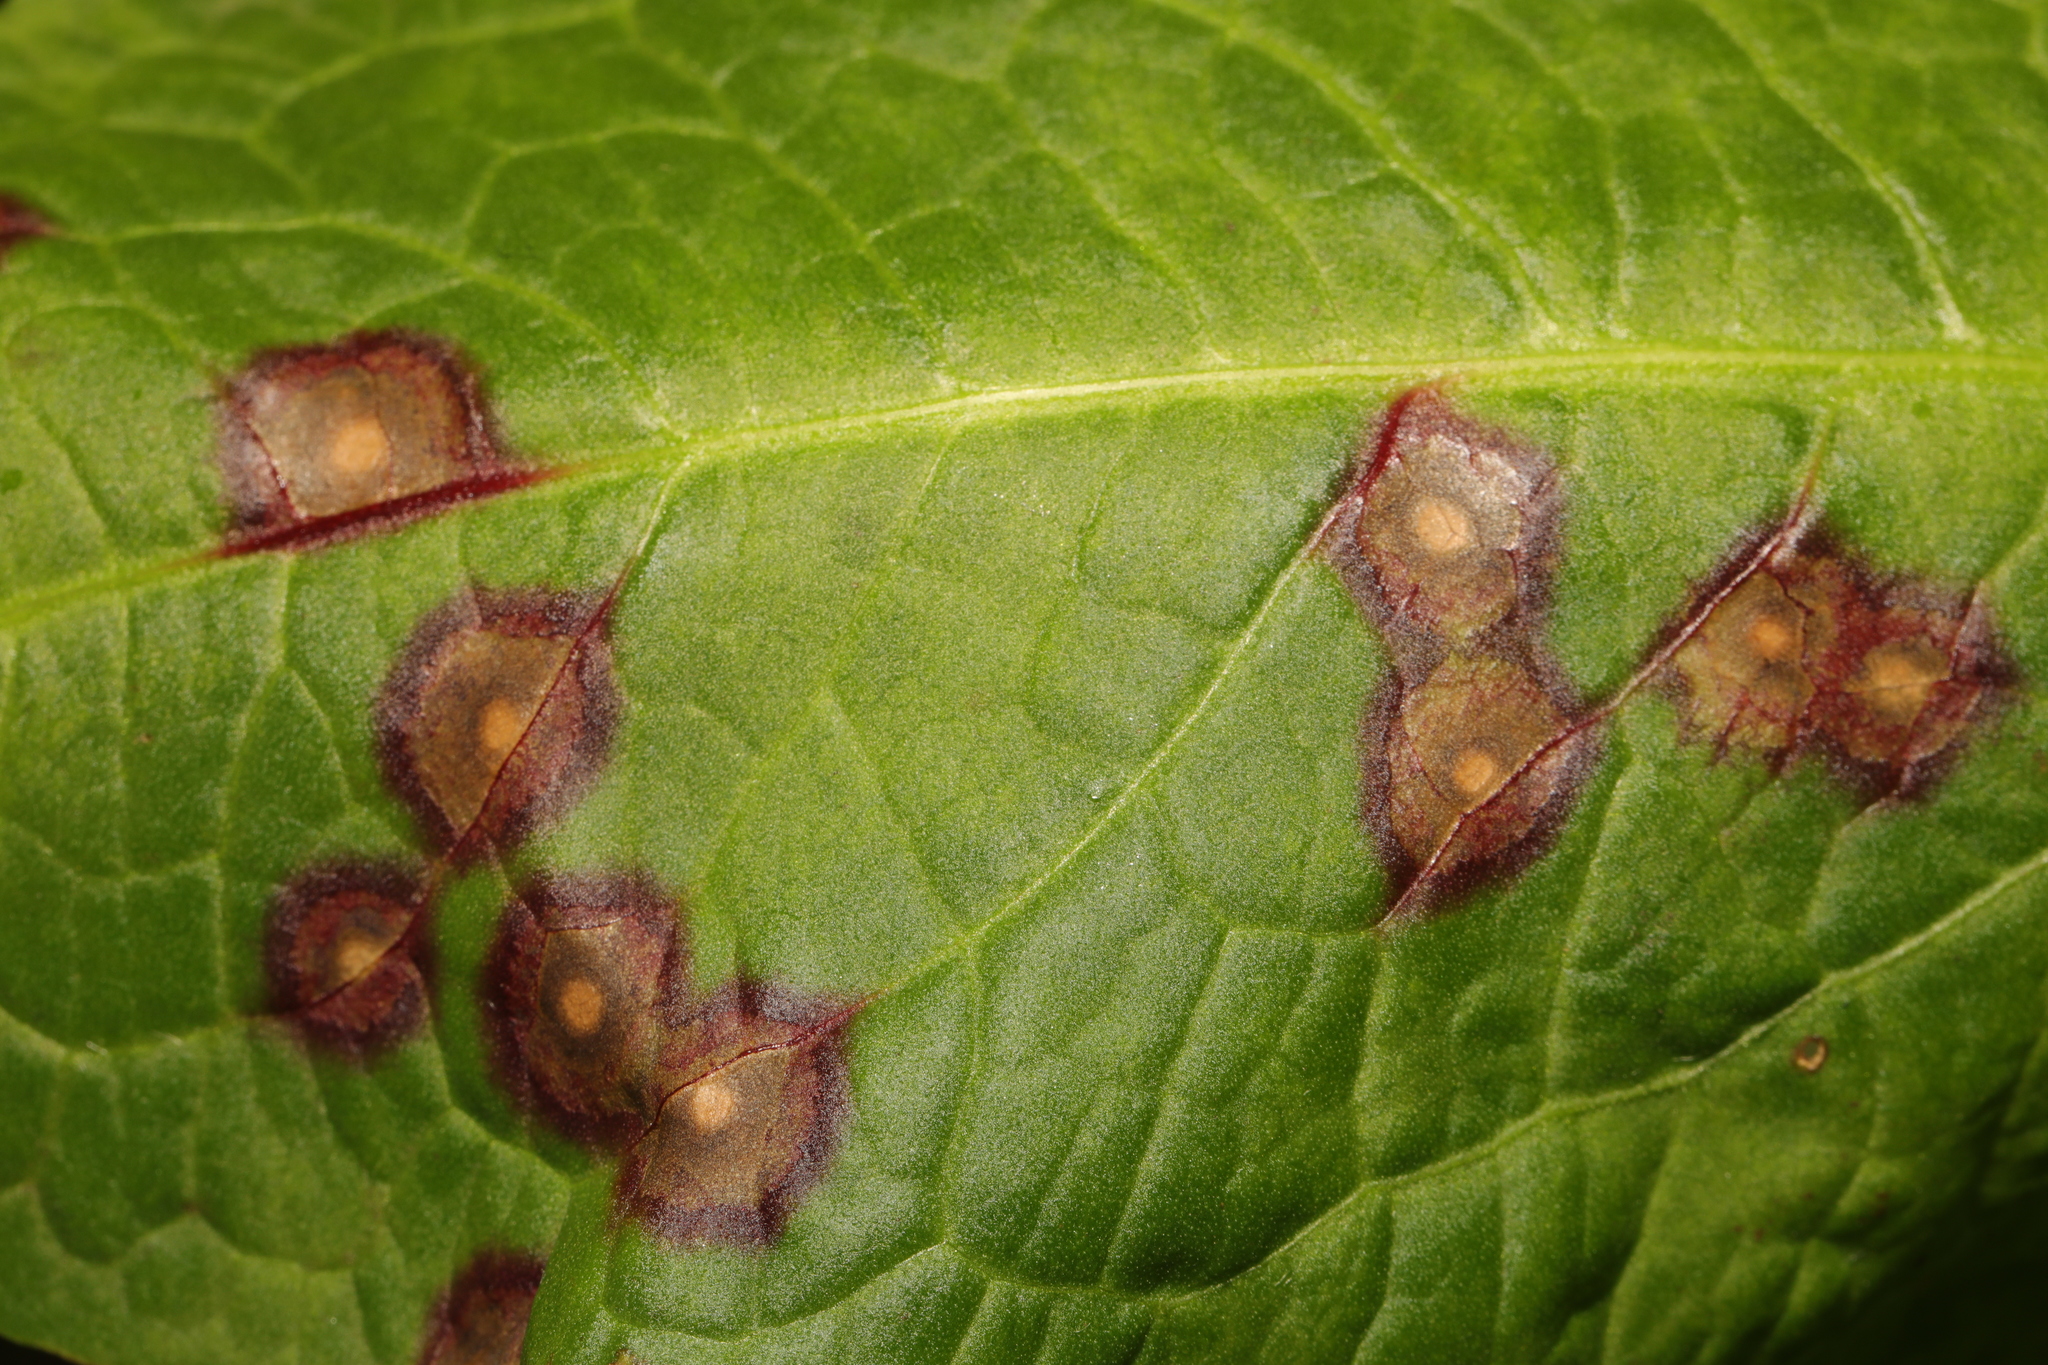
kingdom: Fungi
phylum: Ascomycota
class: Dothideomycetes
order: Mycosphaerellales
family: Mycosphaerellaceae
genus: Ramularia
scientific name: Ramularia rubella
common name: Red dock spot
